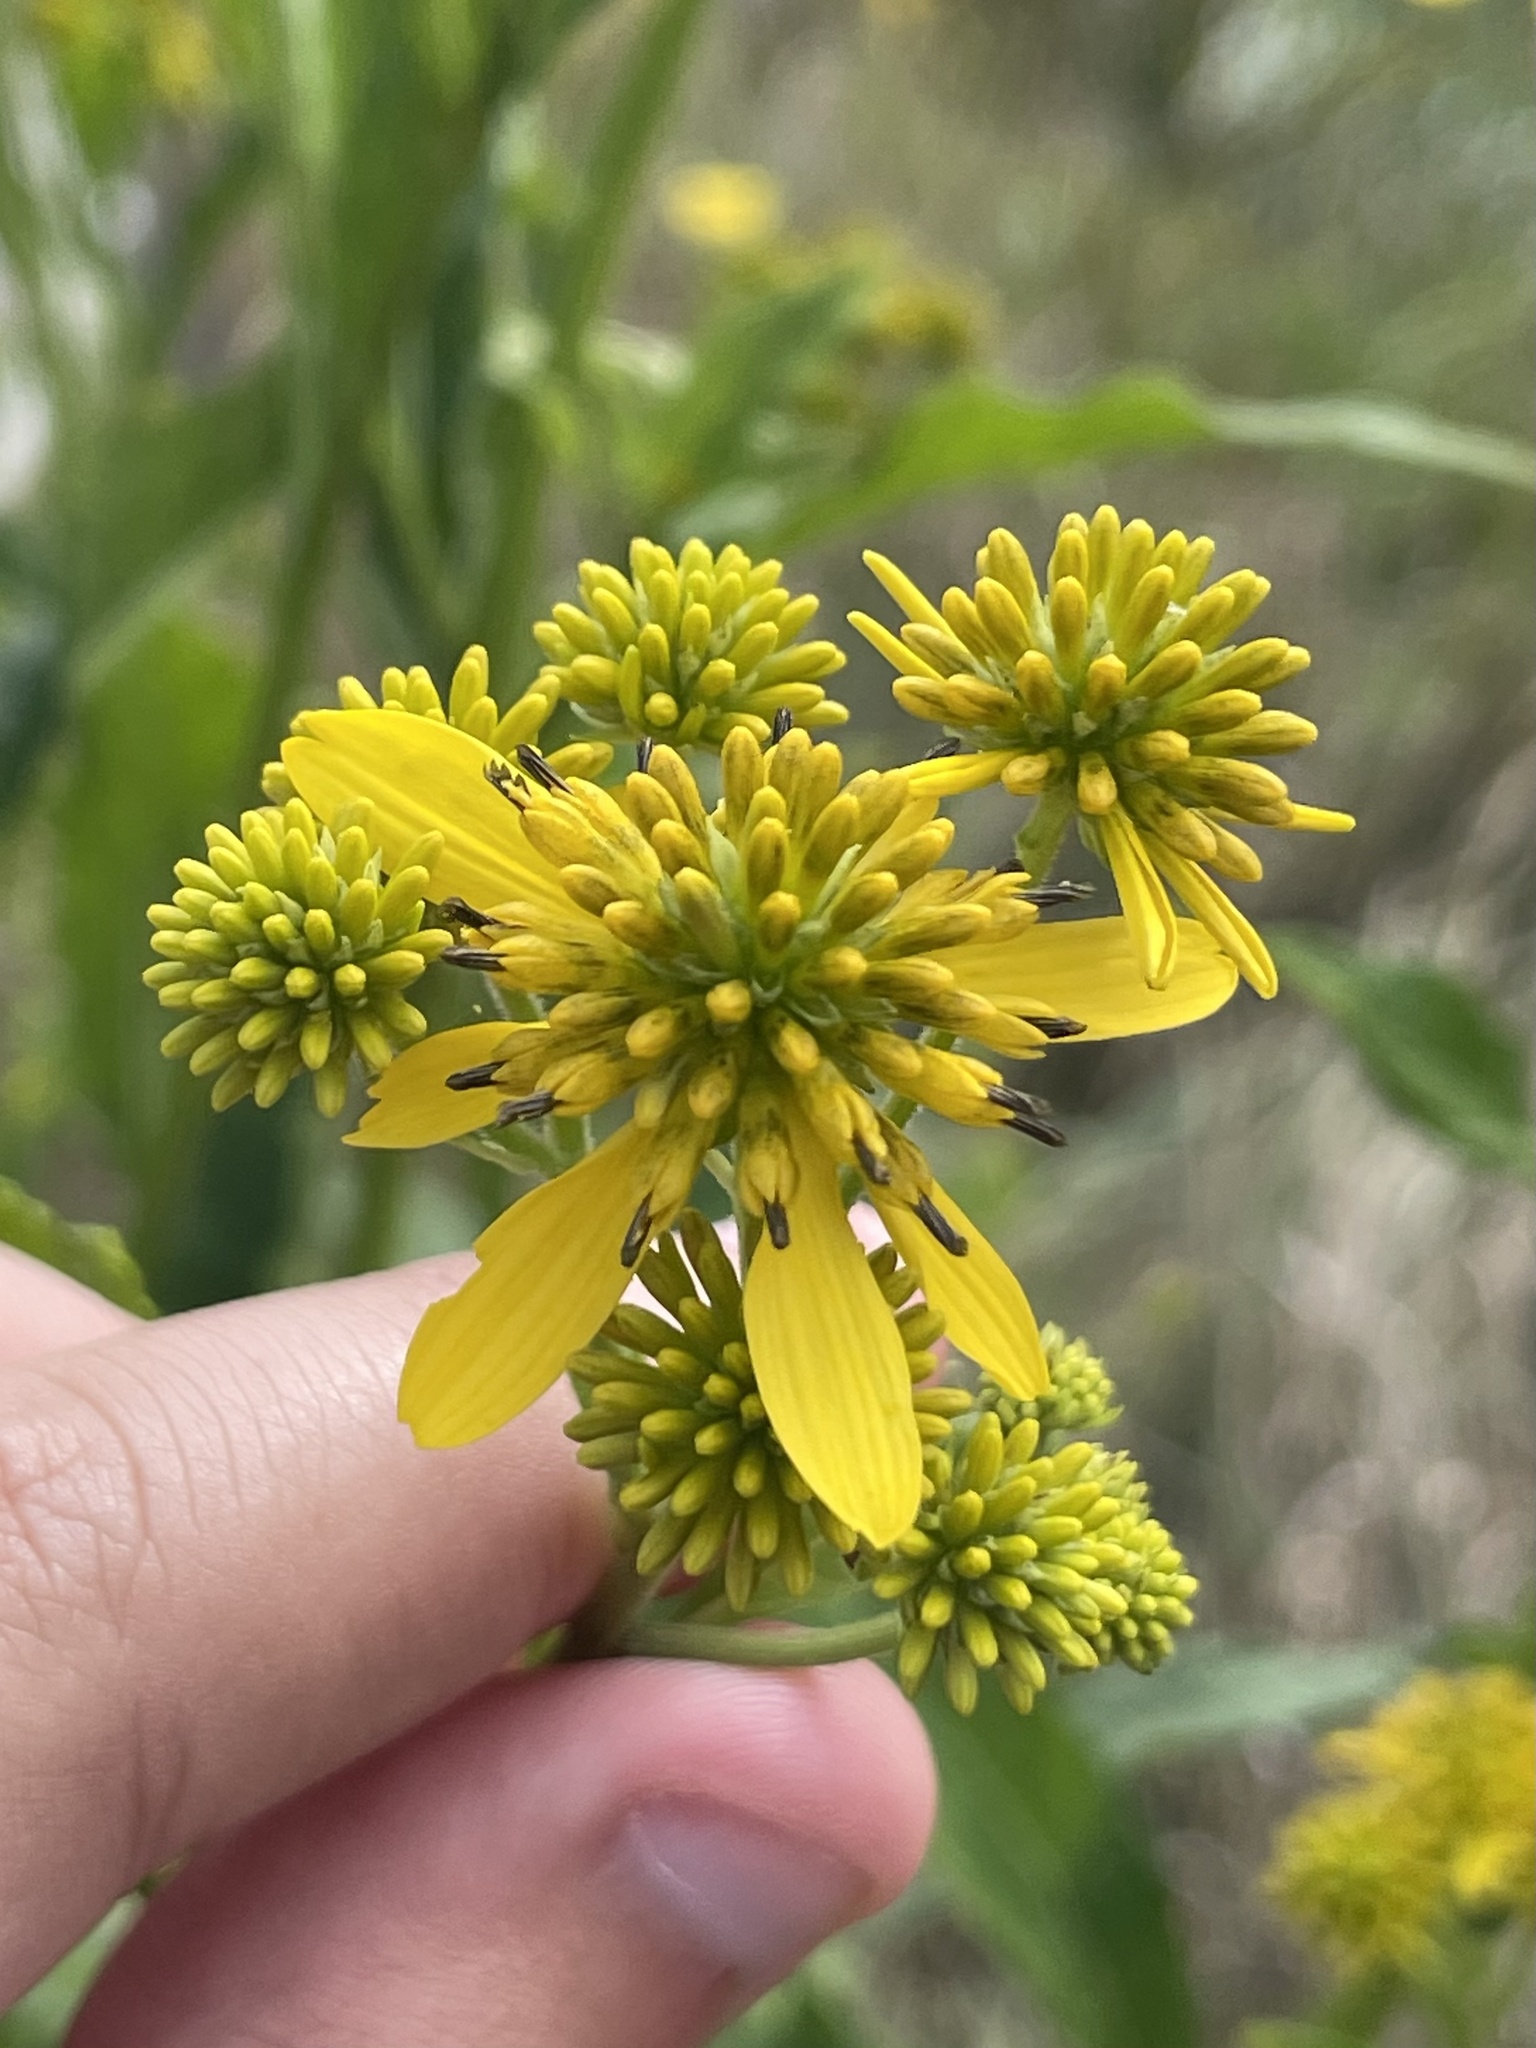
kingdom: Plantae
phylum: Tracheophyta
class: Magnoliopsida
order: Asterales
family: Asteraceae
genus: Verbesina
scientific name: Verbesina alternifolia
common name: Wingstem
